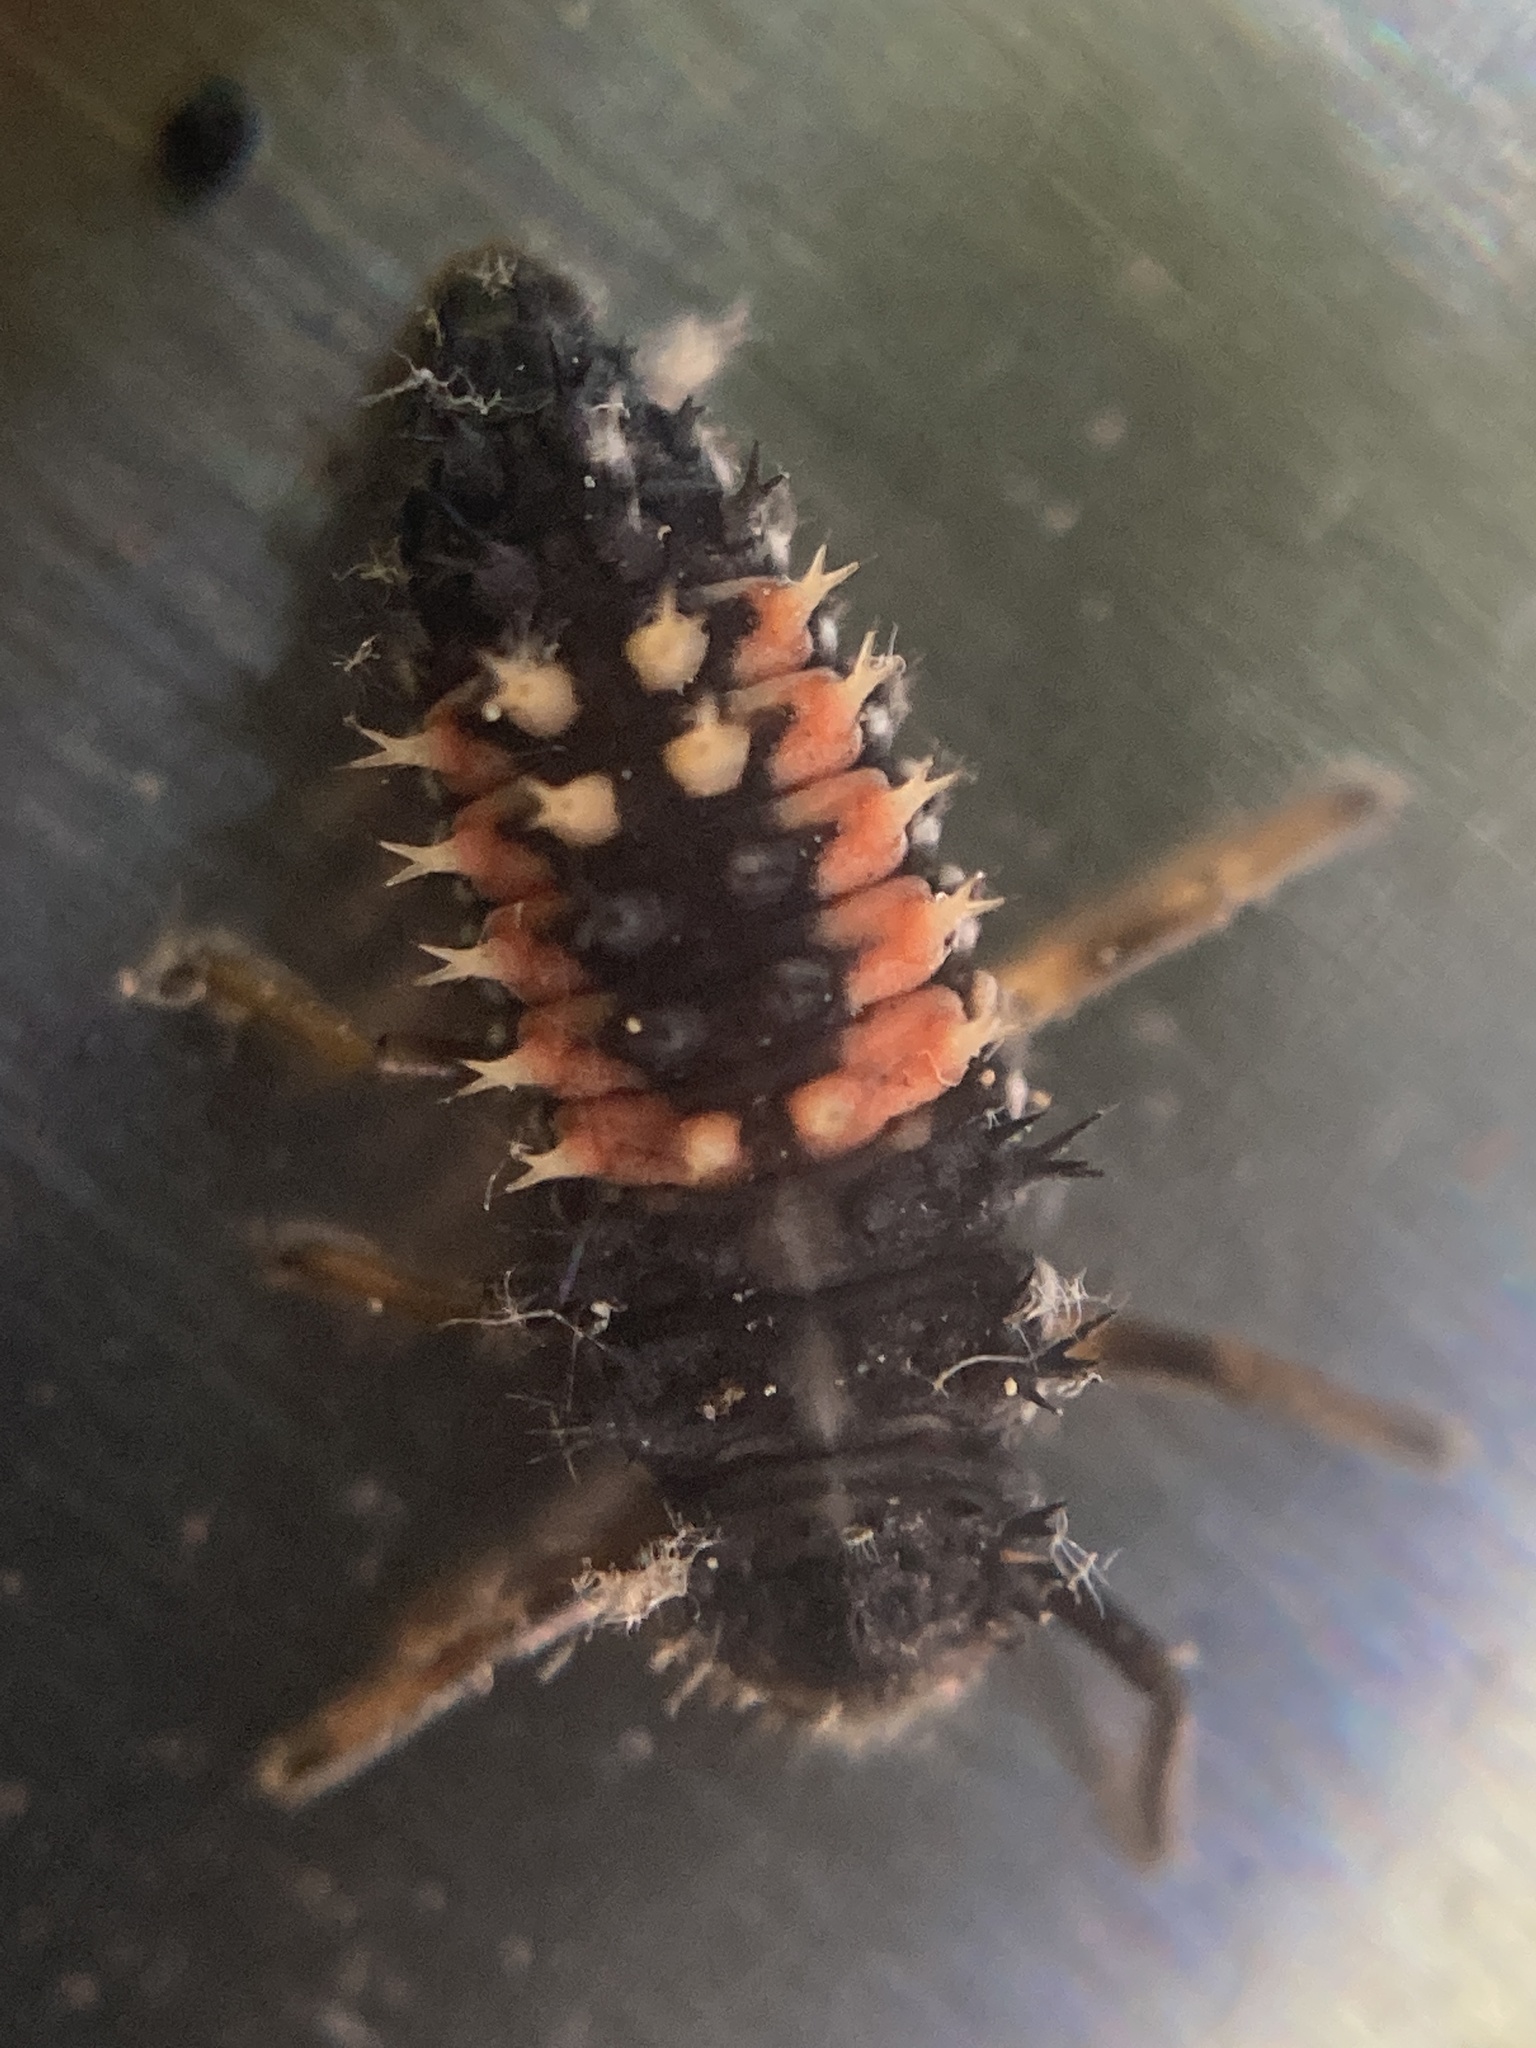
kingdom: Animalia
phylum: Arthropoda
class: Insecta
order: Coleoptera
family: Coccinellidae
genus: Harmonia
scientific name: Harmonia axyridis
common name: Harlequin ladybird
